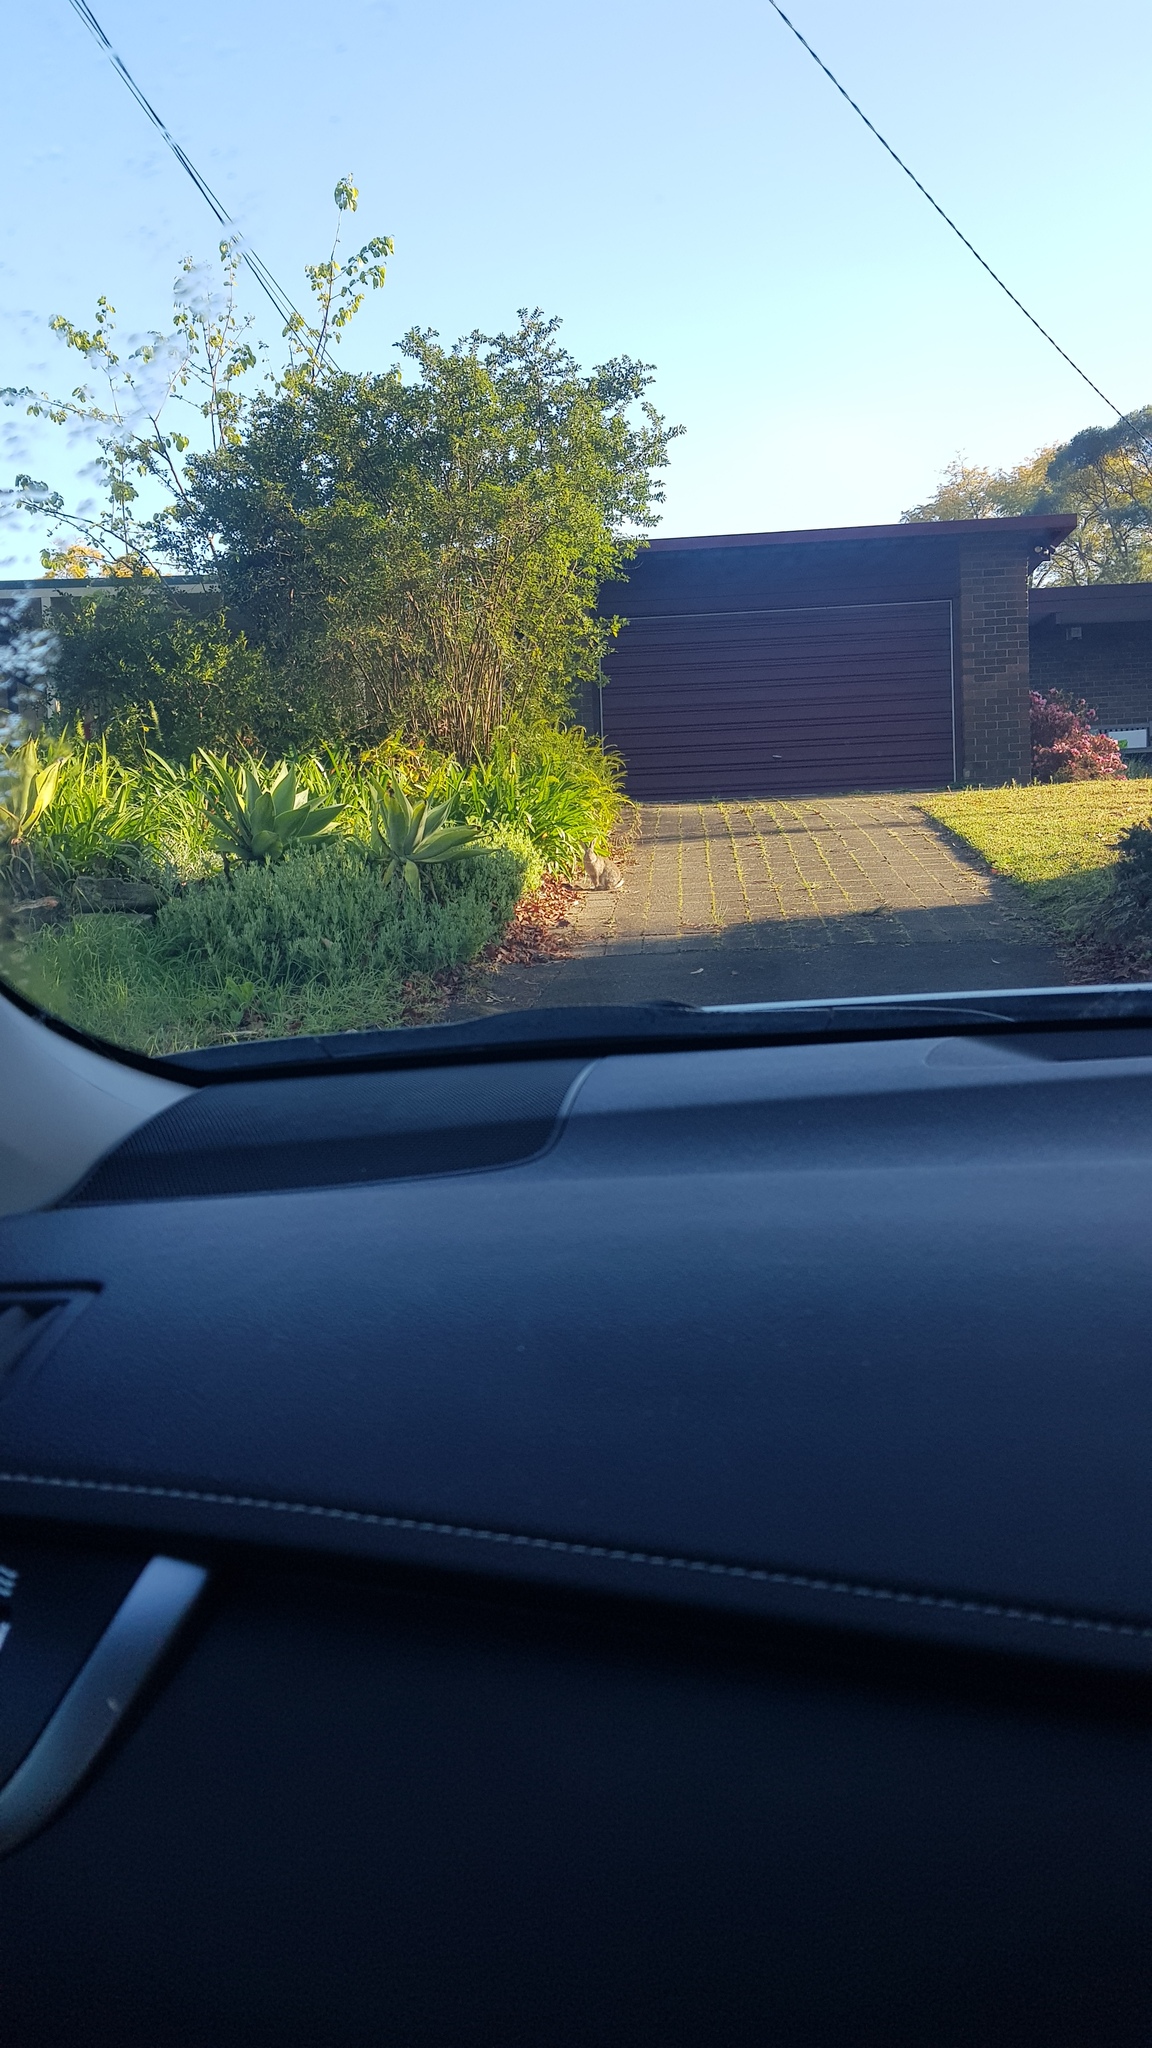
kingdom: Animalia
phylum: Chordata
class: Mammalia
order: Lagomorpha
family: Leporidae
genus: Oryctolagus
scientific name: Oryctolagus cuniculus
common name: European rabbit
